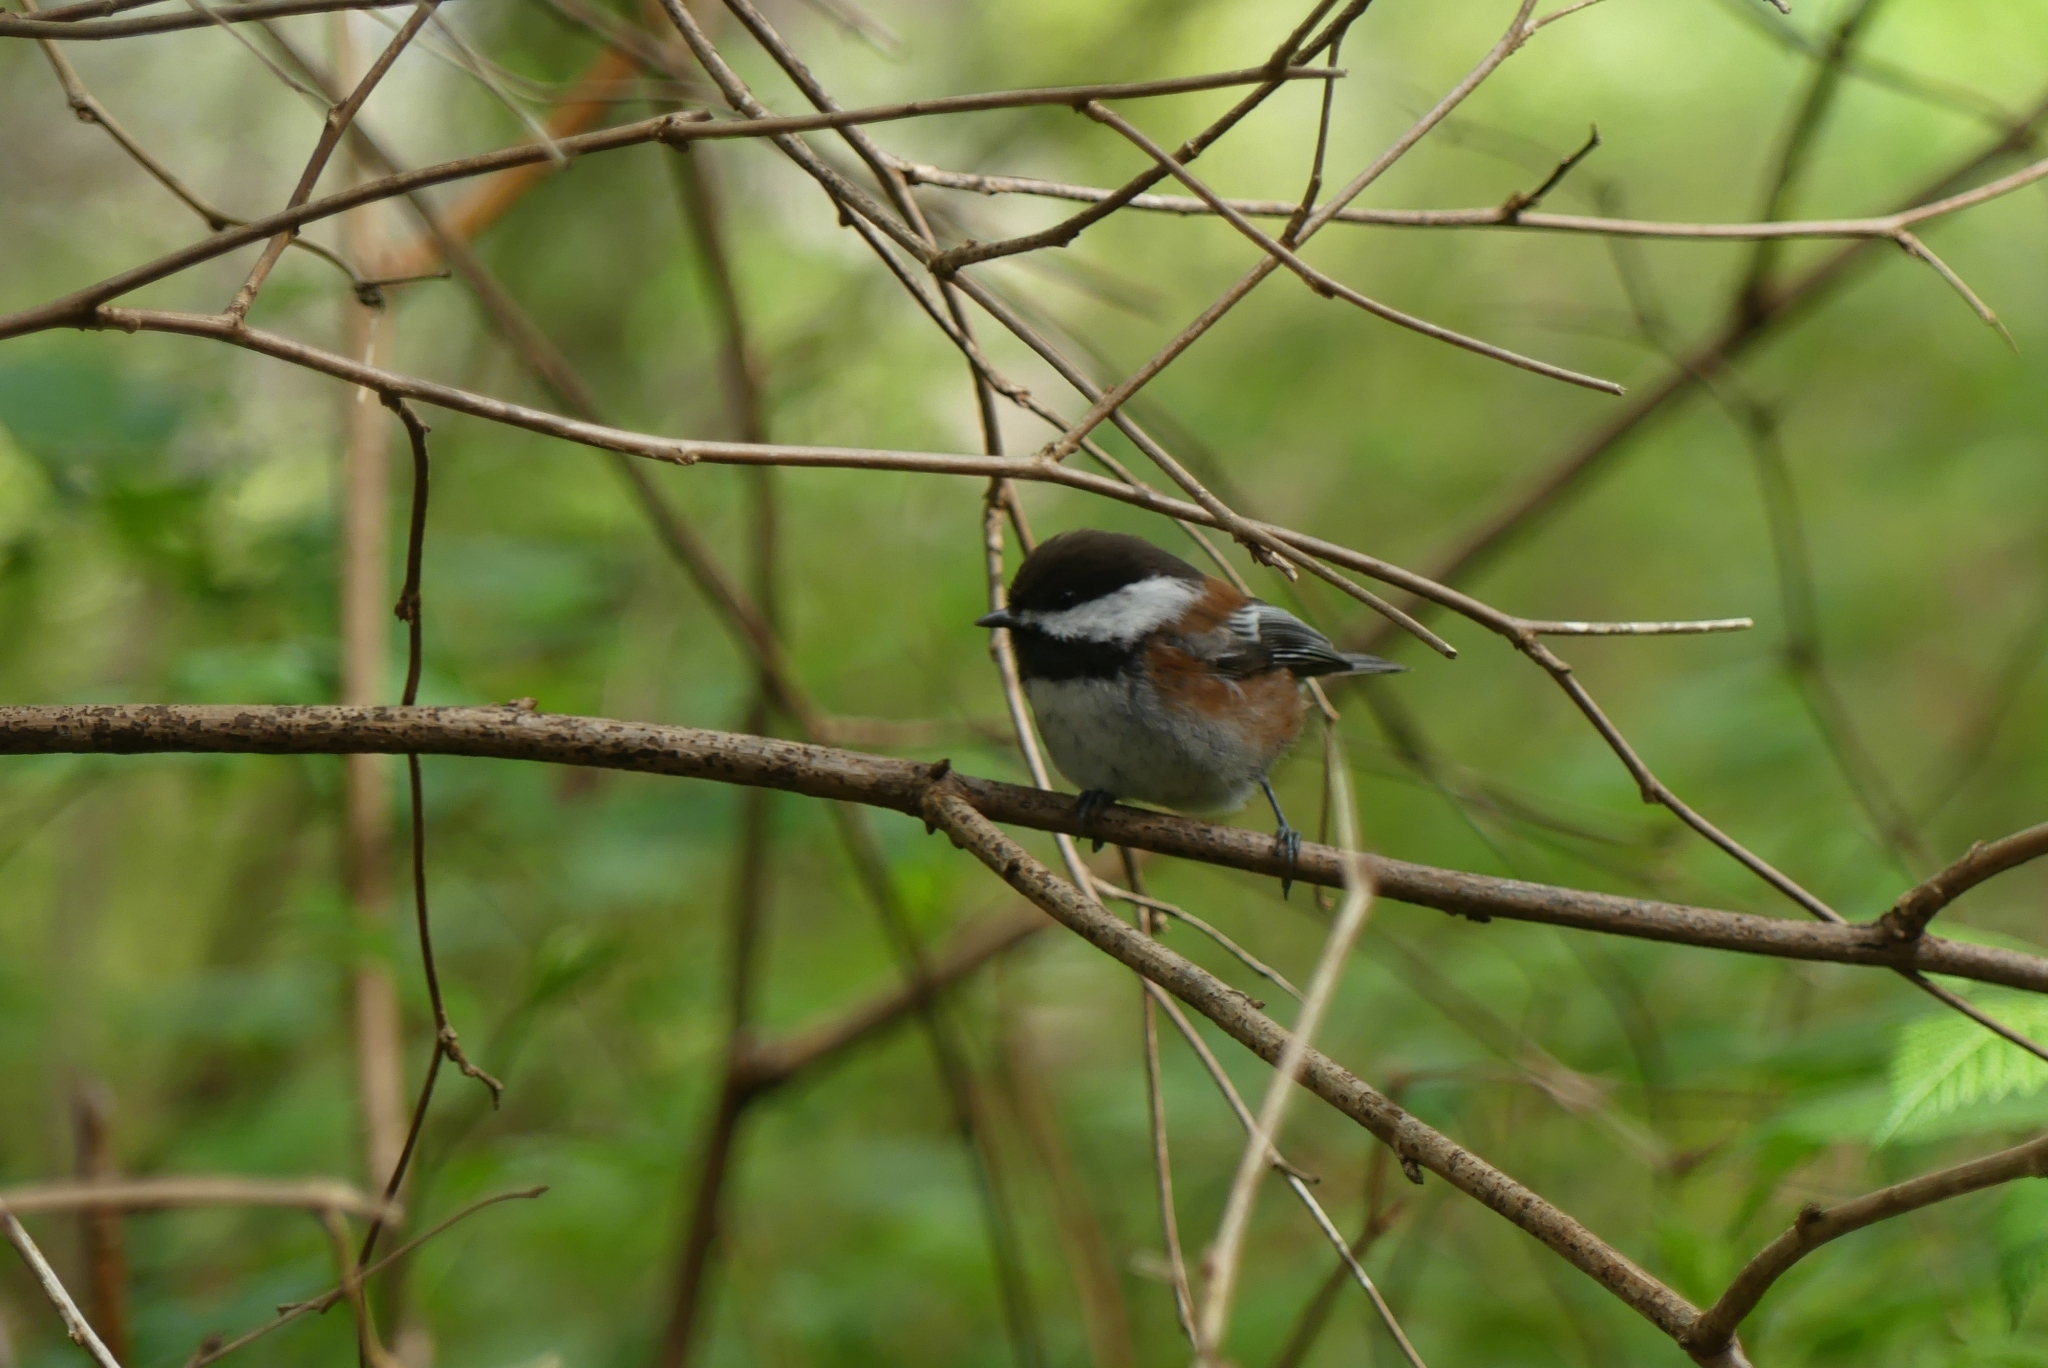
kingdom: Animalia
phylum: Chordata
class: Aves
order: Passeriformes
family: Paridae
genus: Poecile
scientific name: Poecile rufescens
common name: Chestnut-backed chickadee
